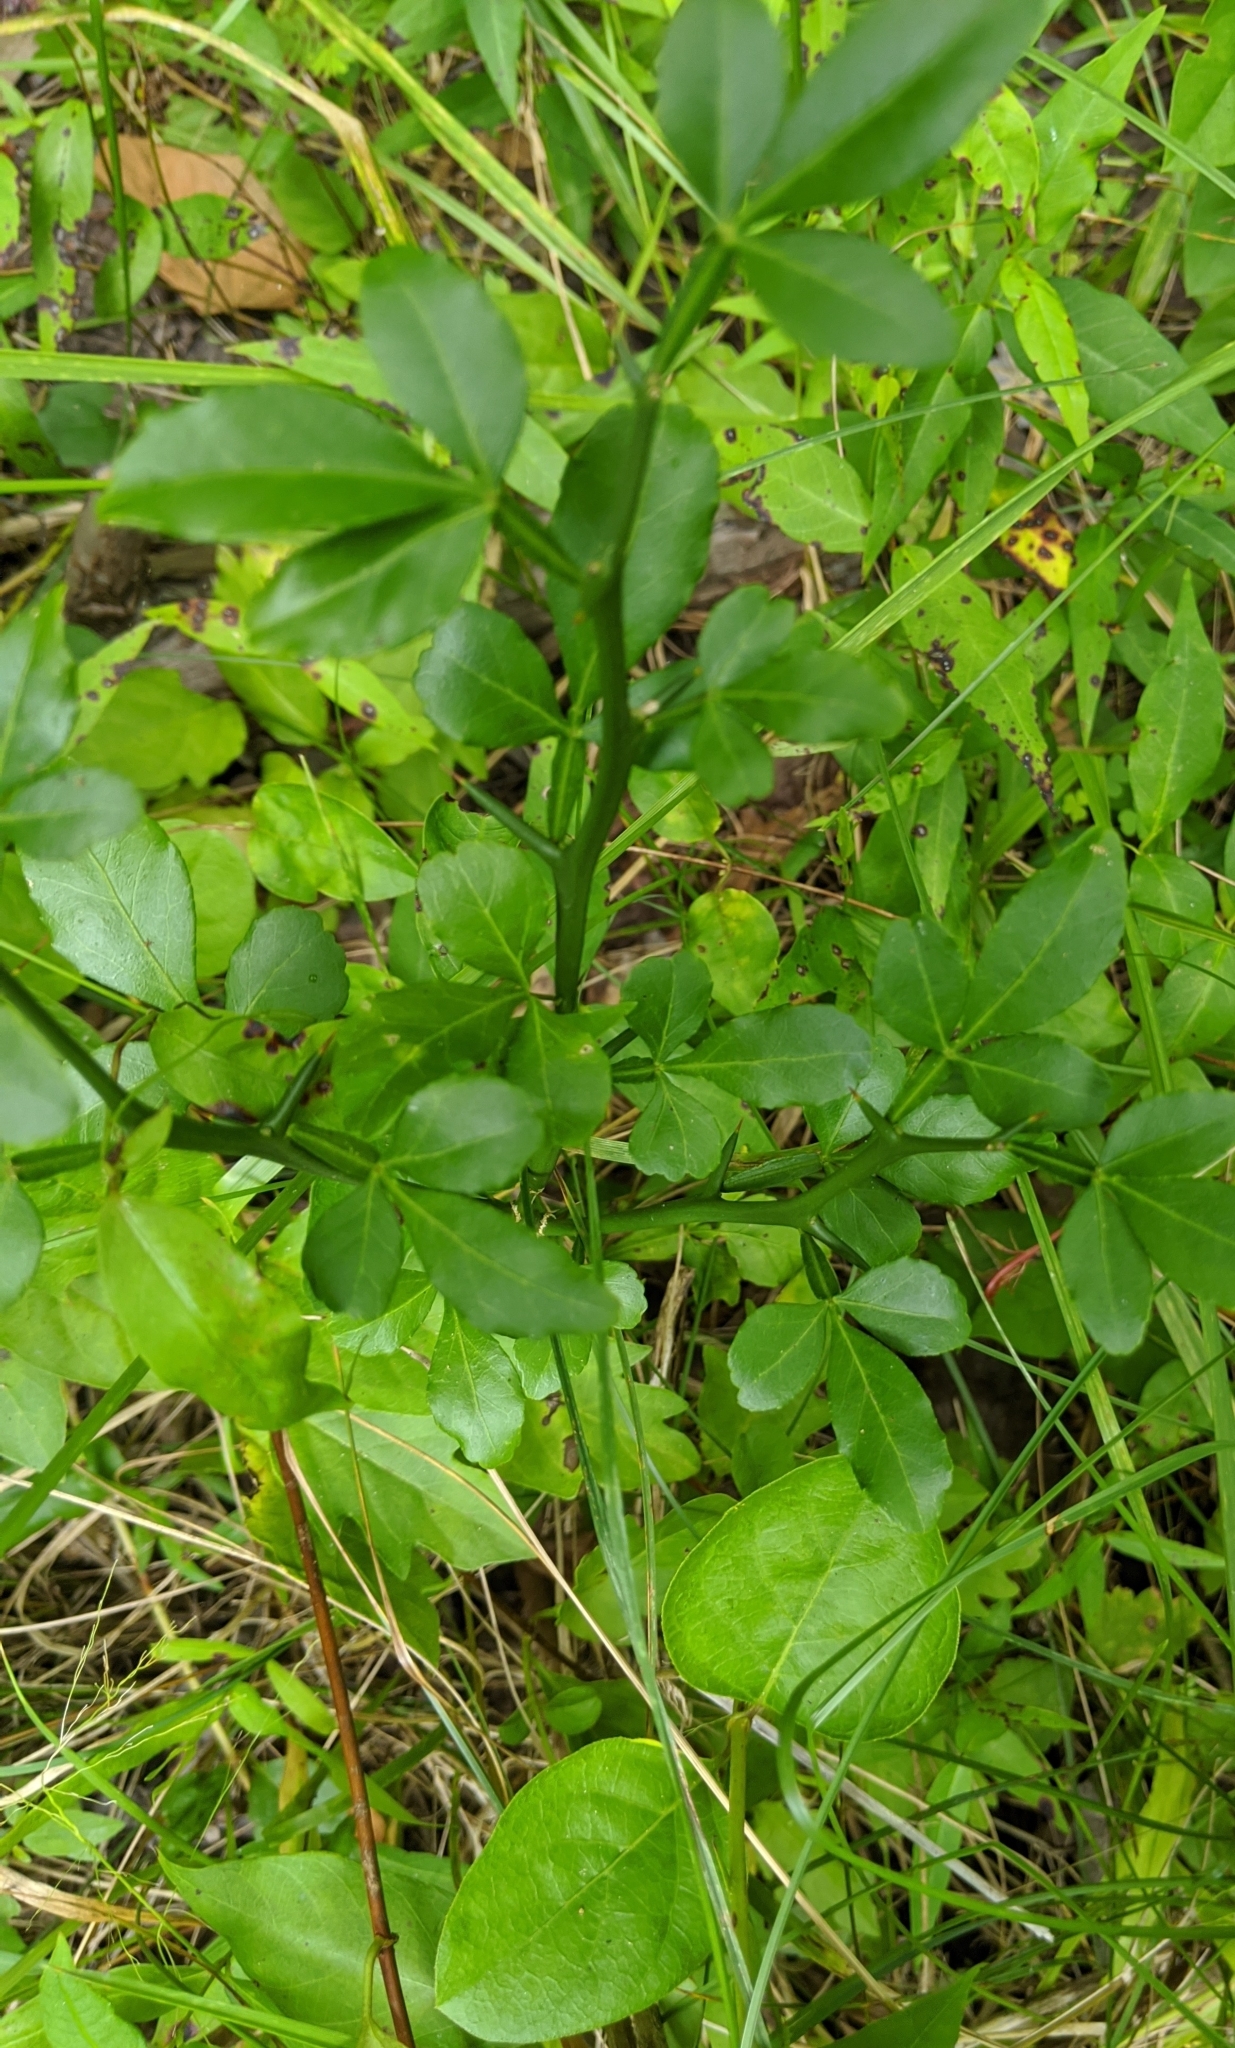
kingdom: Plantae
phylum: Tracheophyta
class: Magnoliopsida
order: Sapindales
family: Rutaceae
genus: Citrus
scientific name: Citrus trifoliata
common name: Japanese bitter-orange
